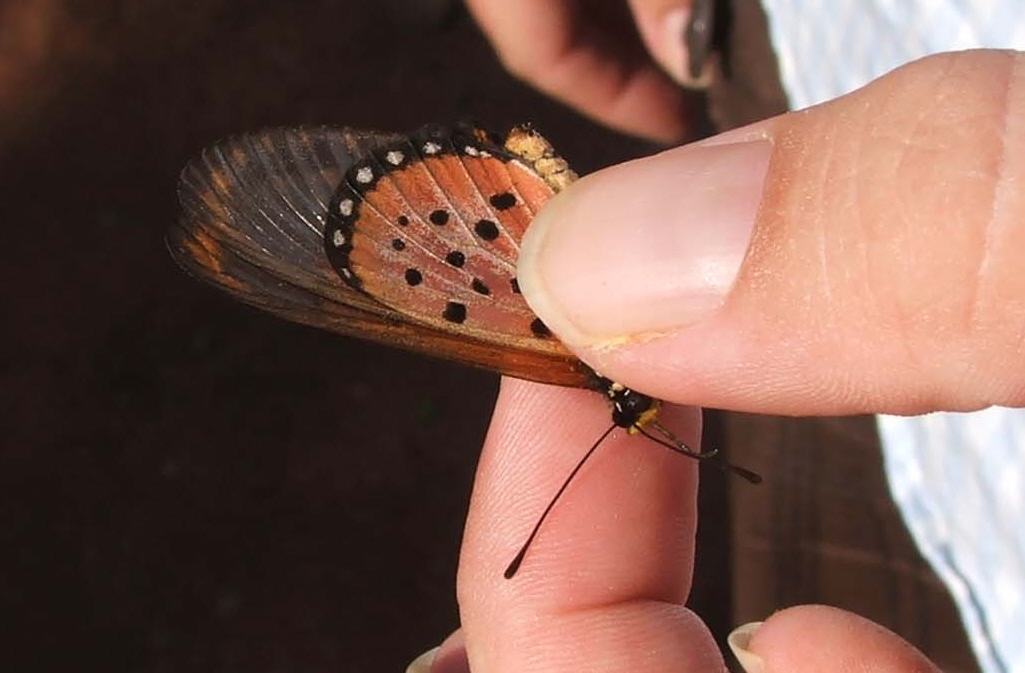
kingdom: Animalia
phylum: Arthropoda
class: Insecta
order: Lepidoptera
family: Nymphalidae
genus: Acraea
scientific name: Acraea neobule
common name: Dancing acraea
